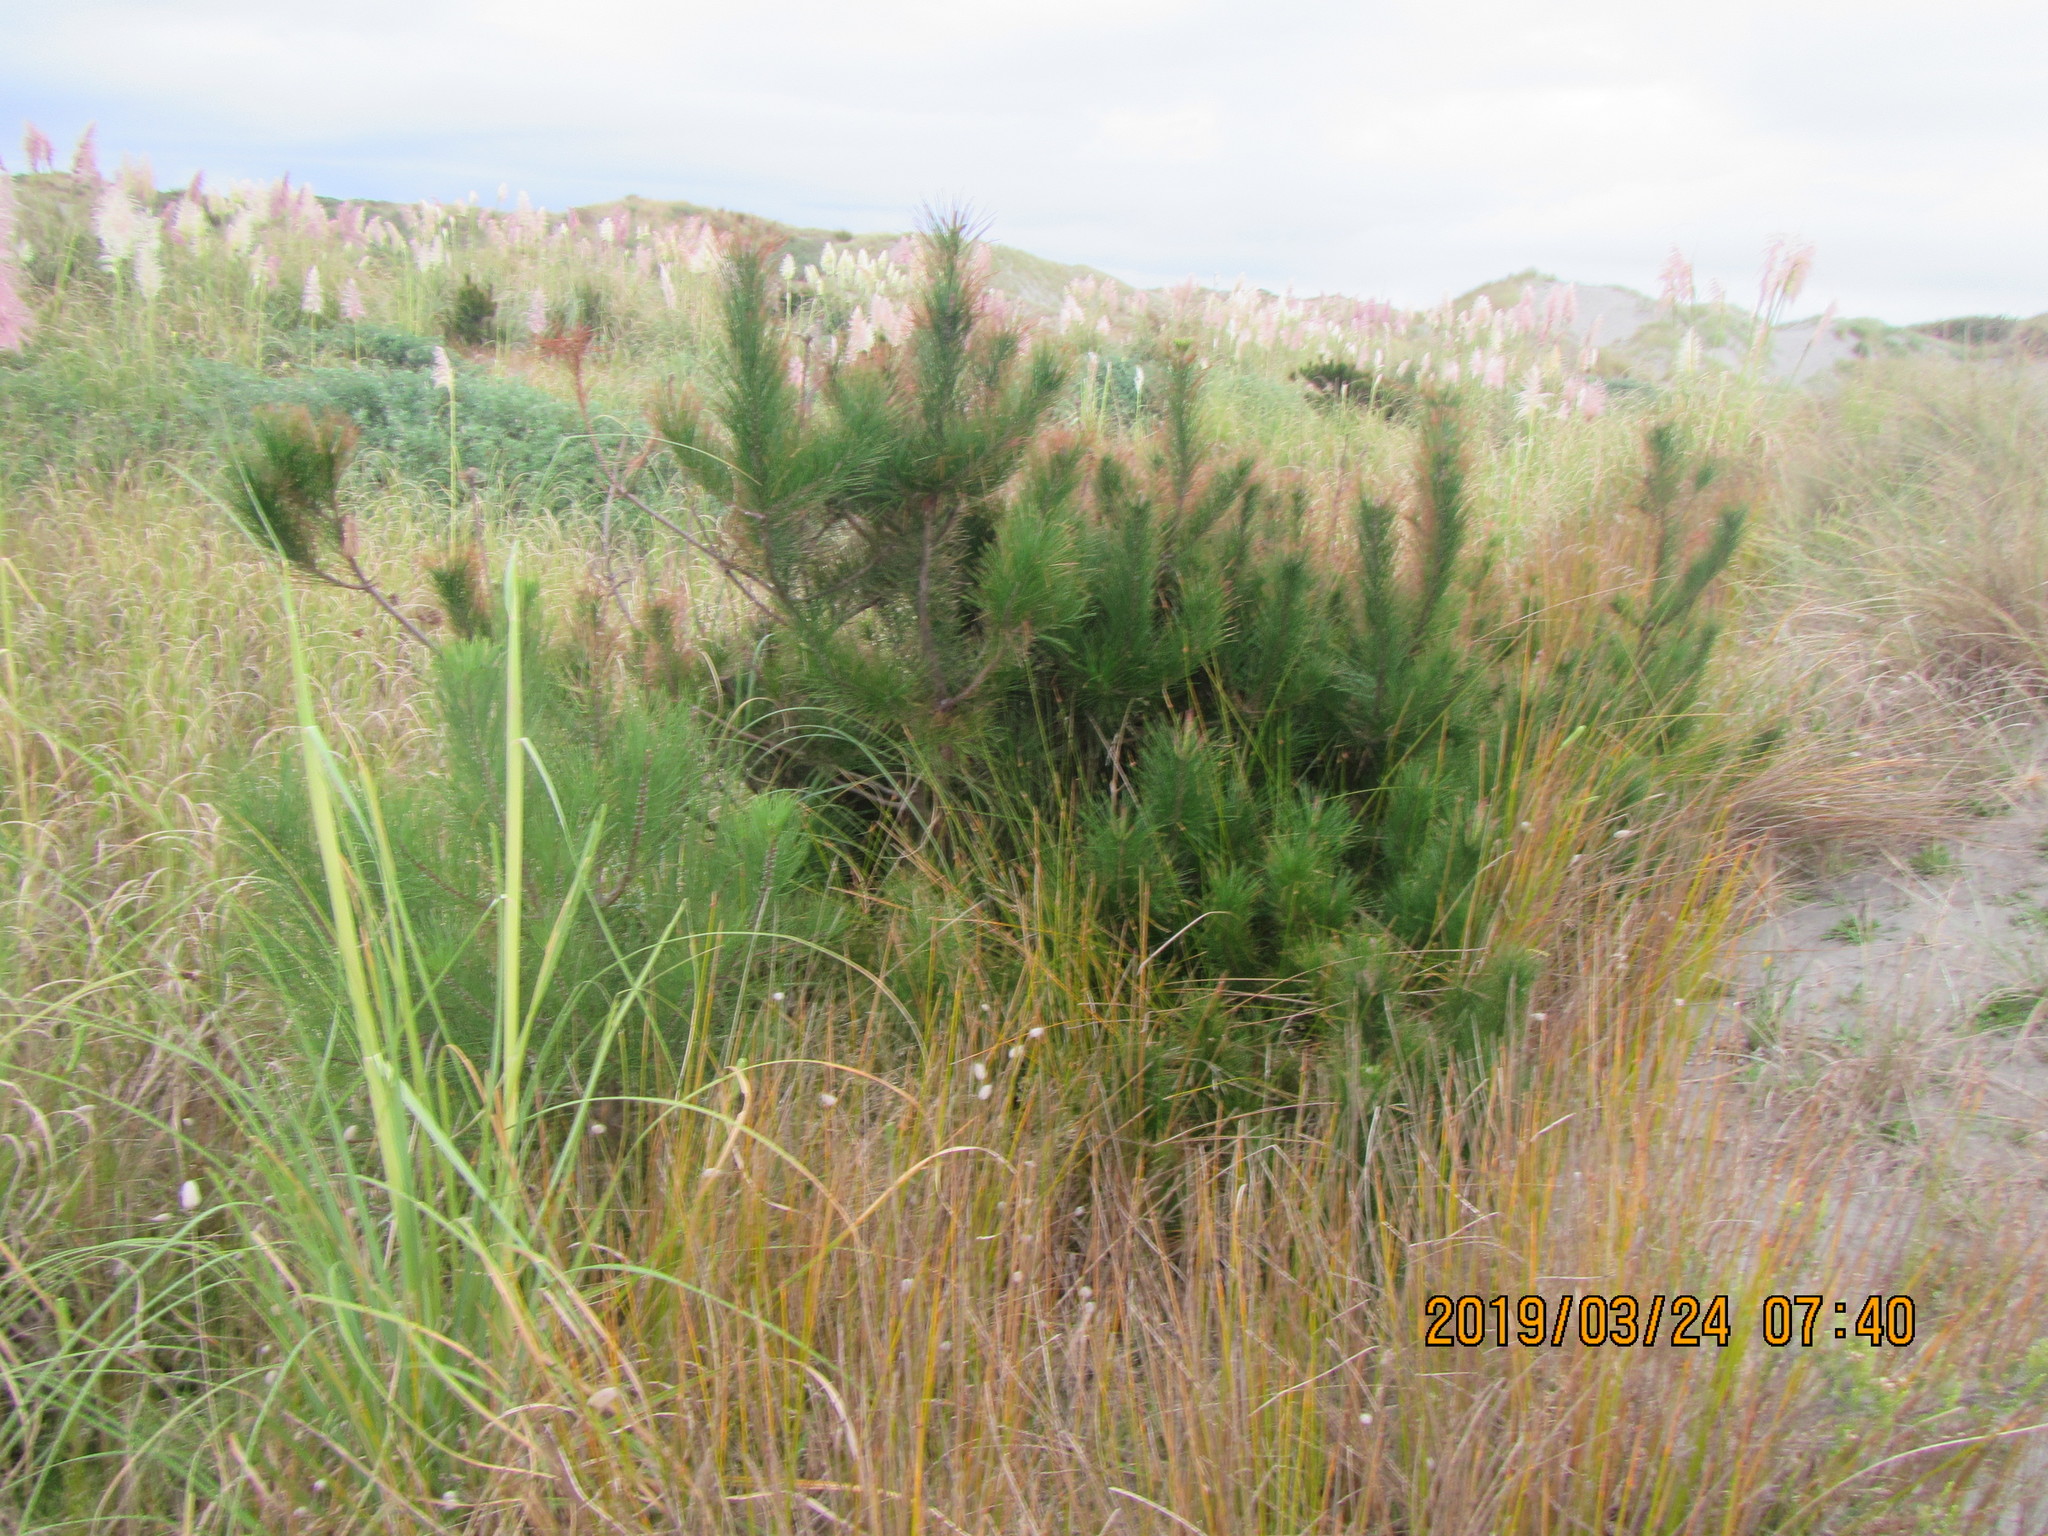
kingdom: Plantae
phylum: Tracheophyta
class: Pinopsida
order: Pinales
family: Pinaceae
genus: Pinus
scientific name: Pinus radiata
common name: Monterey pine
